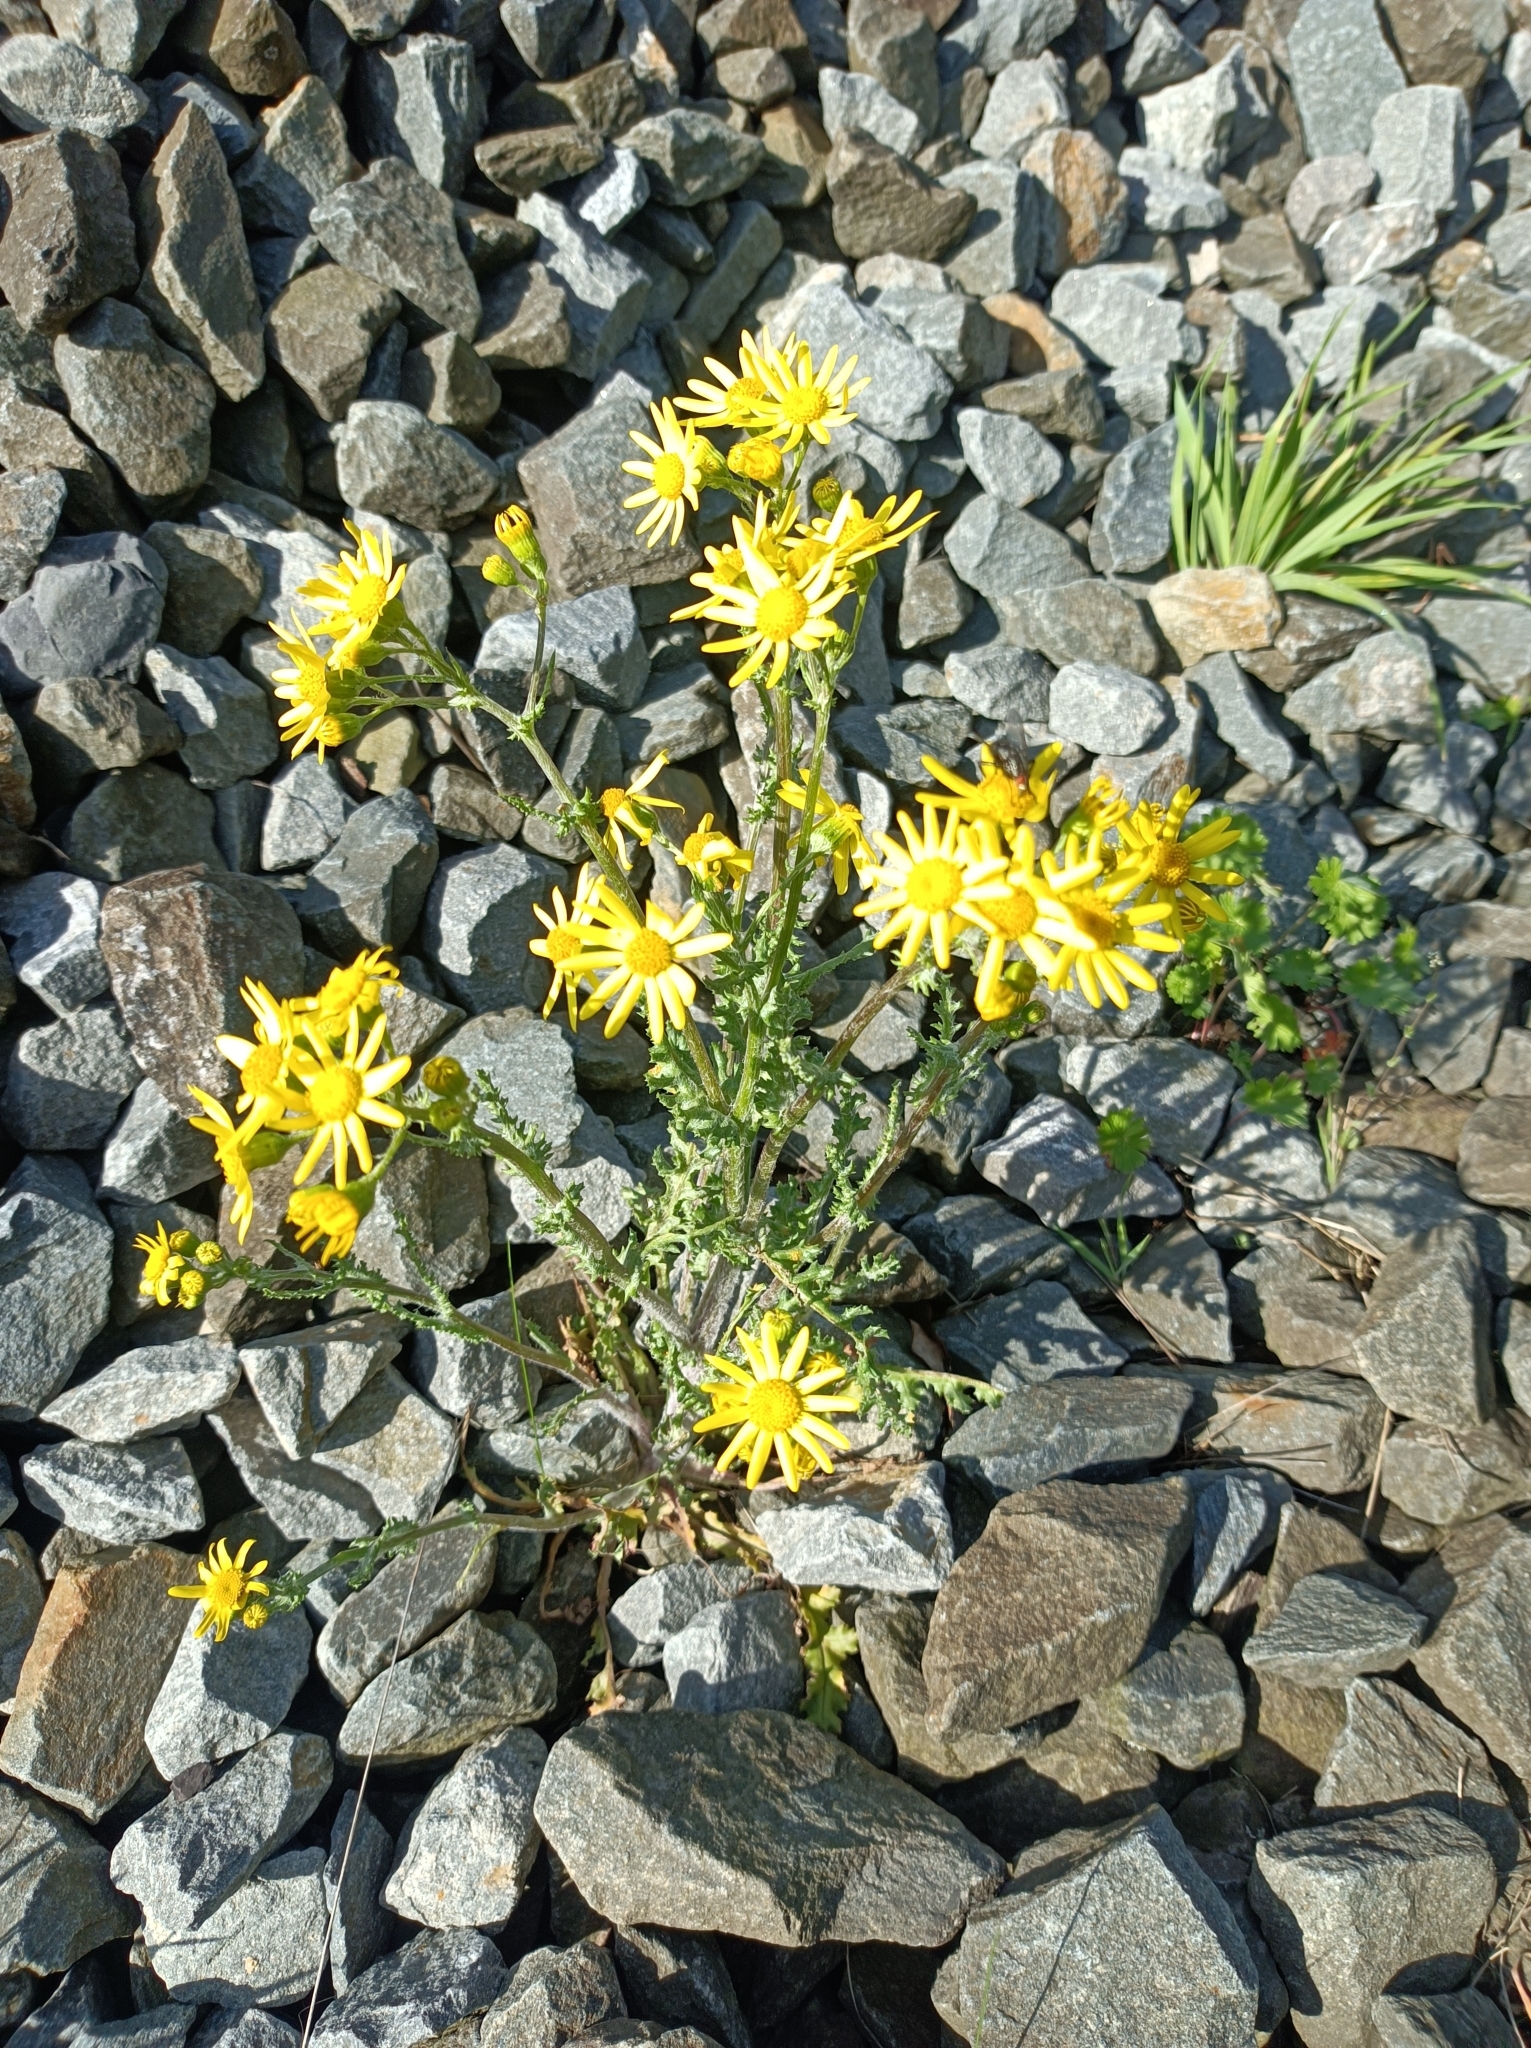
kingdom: Plantae
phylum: Tracheophyta
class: Magnoliopsida
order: Asterales
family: Asteraceae
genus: Senecio
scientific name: Senecio vernalis
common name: Eastern groundsel
